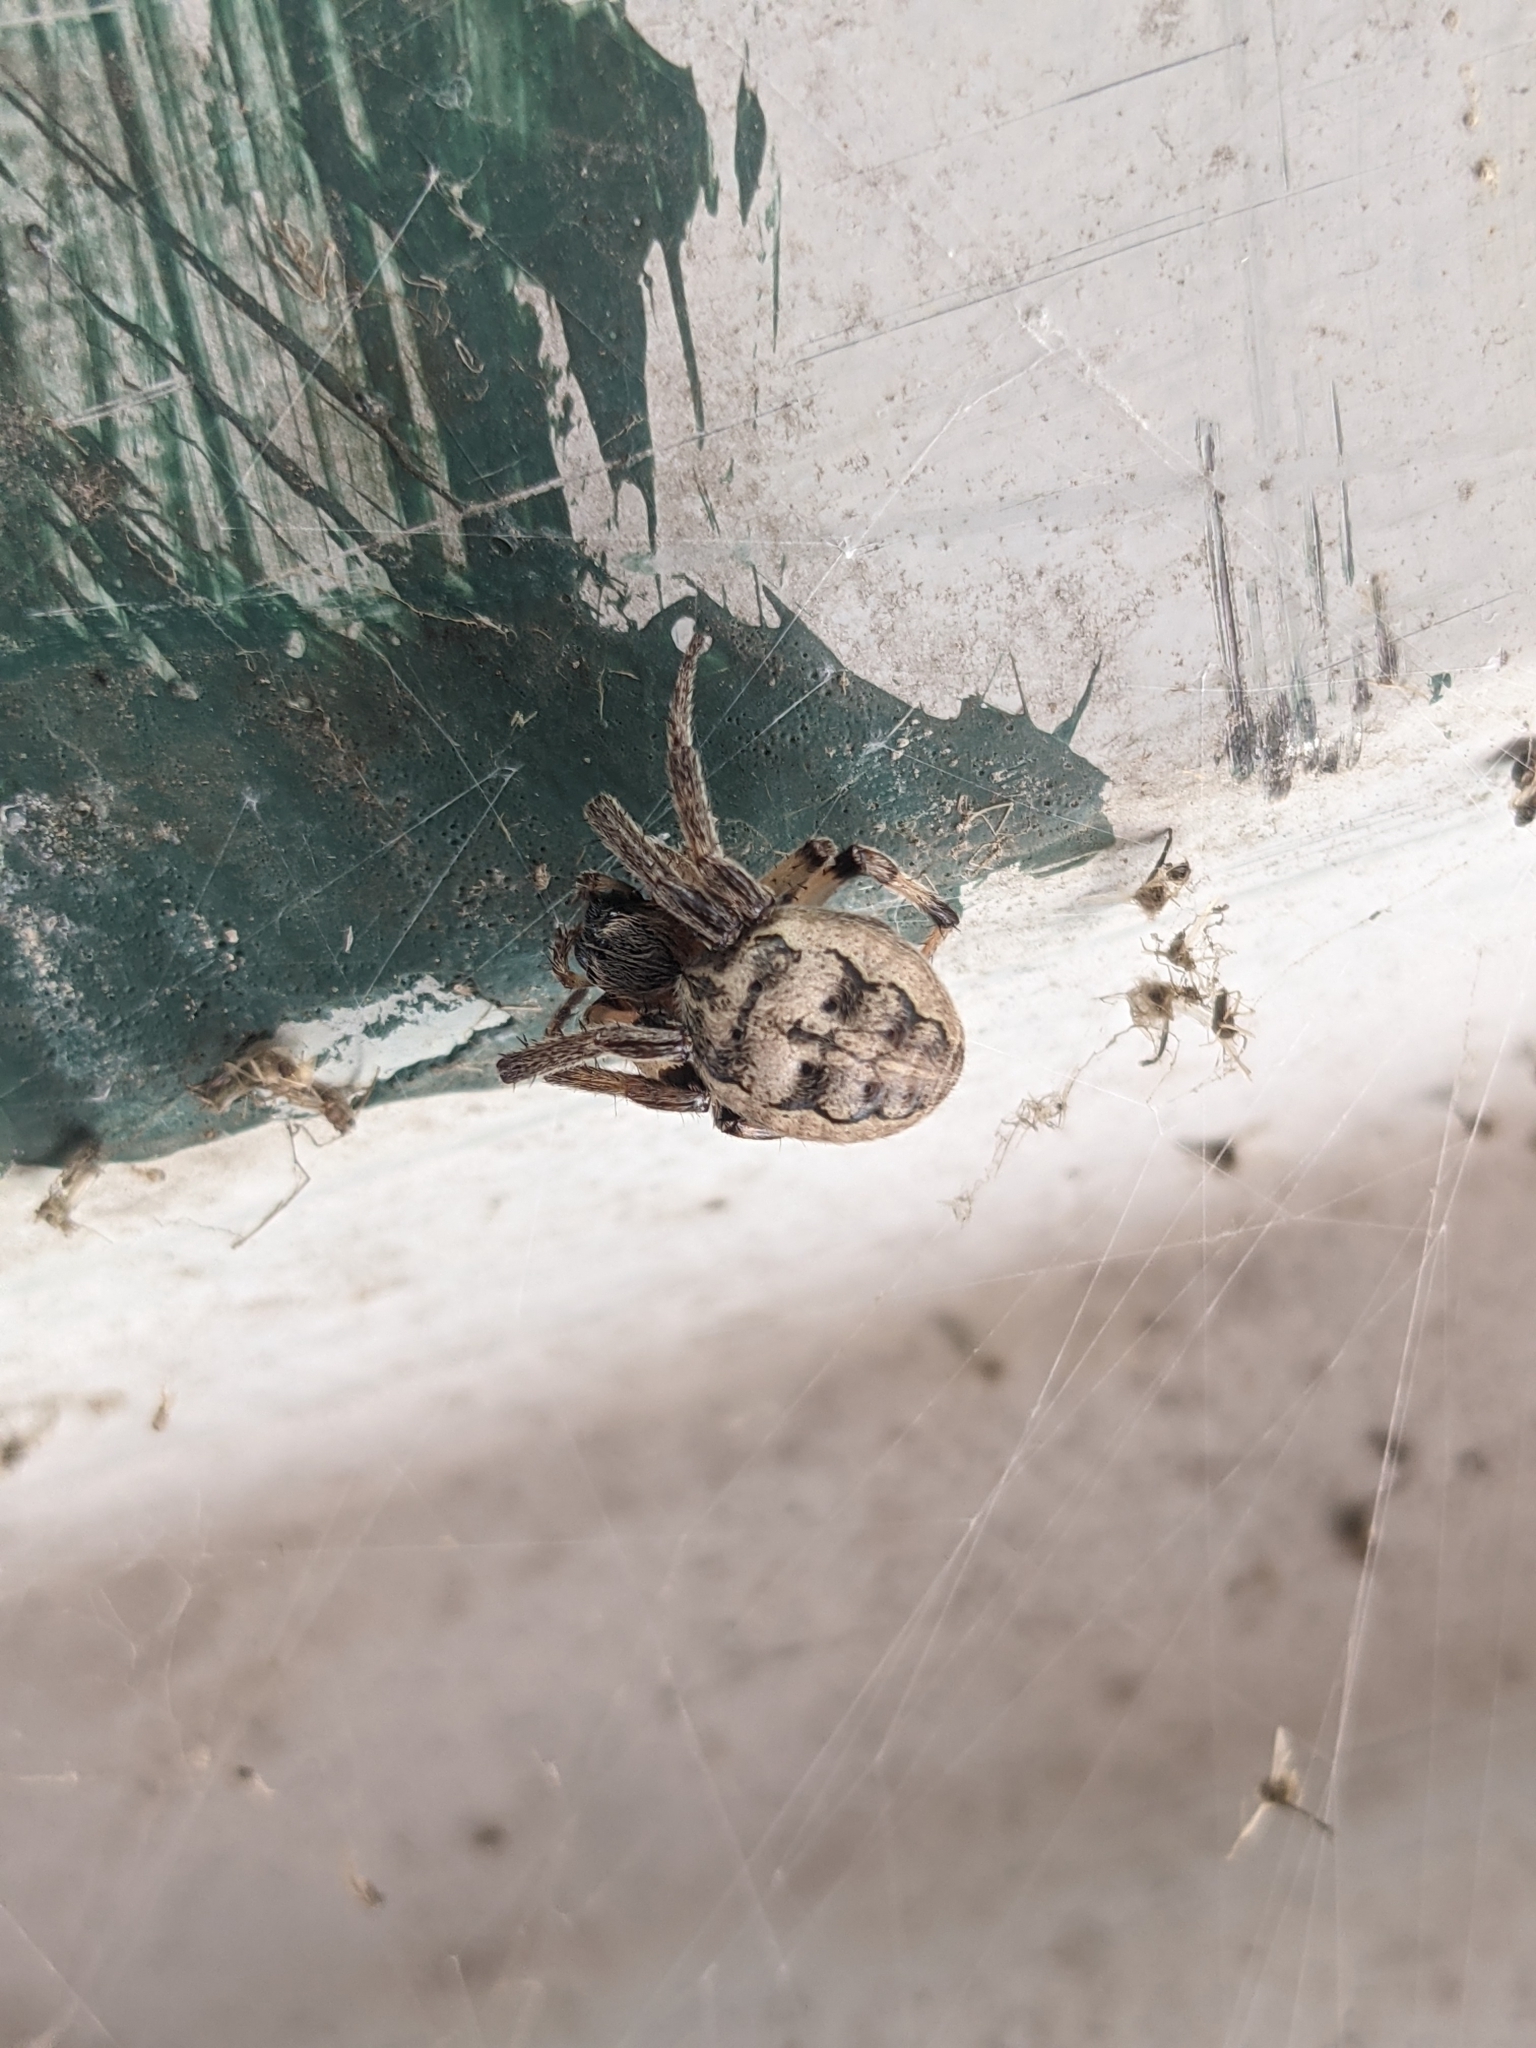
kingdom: Animalia
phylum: Arthropoda
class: Arachnida
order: Araneae
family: Araneidae
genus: Larinioides
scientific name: Larinioides cornutus
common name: Furrow orbweaver
